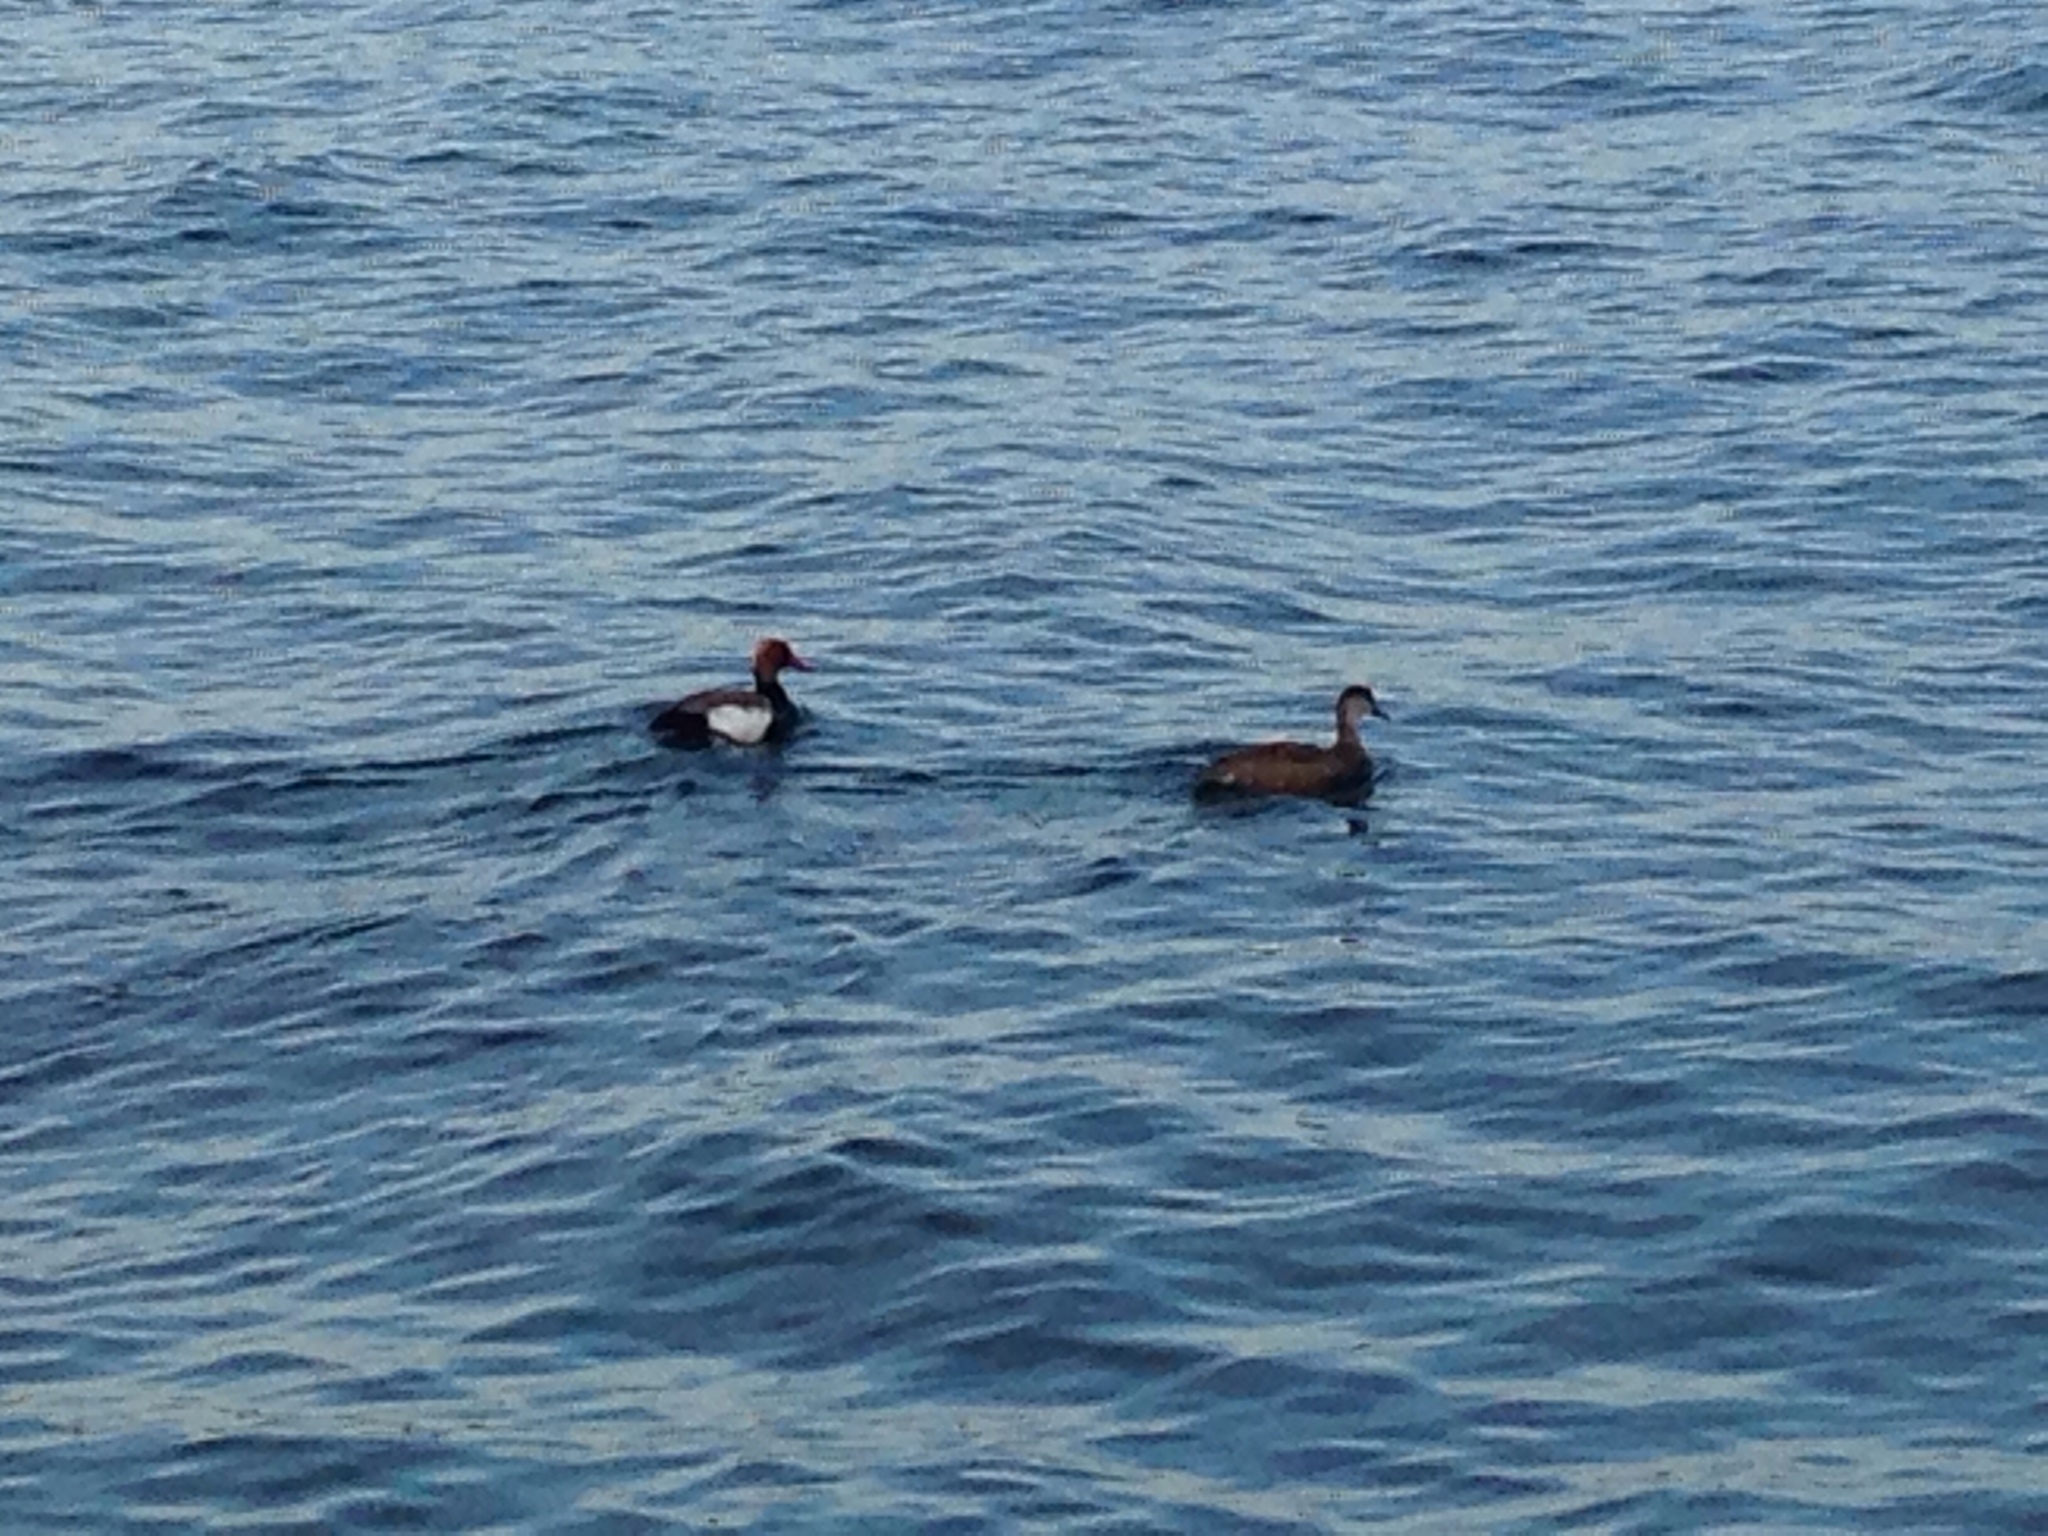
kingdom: Animalia
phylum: Chordata
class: Aves
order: Anseriformes
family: Anatidae
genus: Netta
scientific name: Netta rufina
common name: Red-crested pochard
